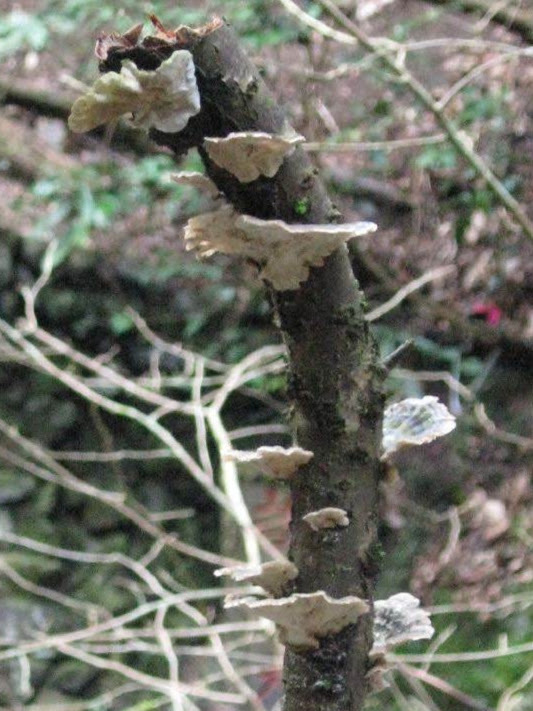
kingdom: Fungi
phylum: Basidiomycota
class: Agaricomycetes
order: Polyporales
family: Polyporaceae
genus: Trametes
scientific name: Trametes versicolor
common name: Turkeytail
